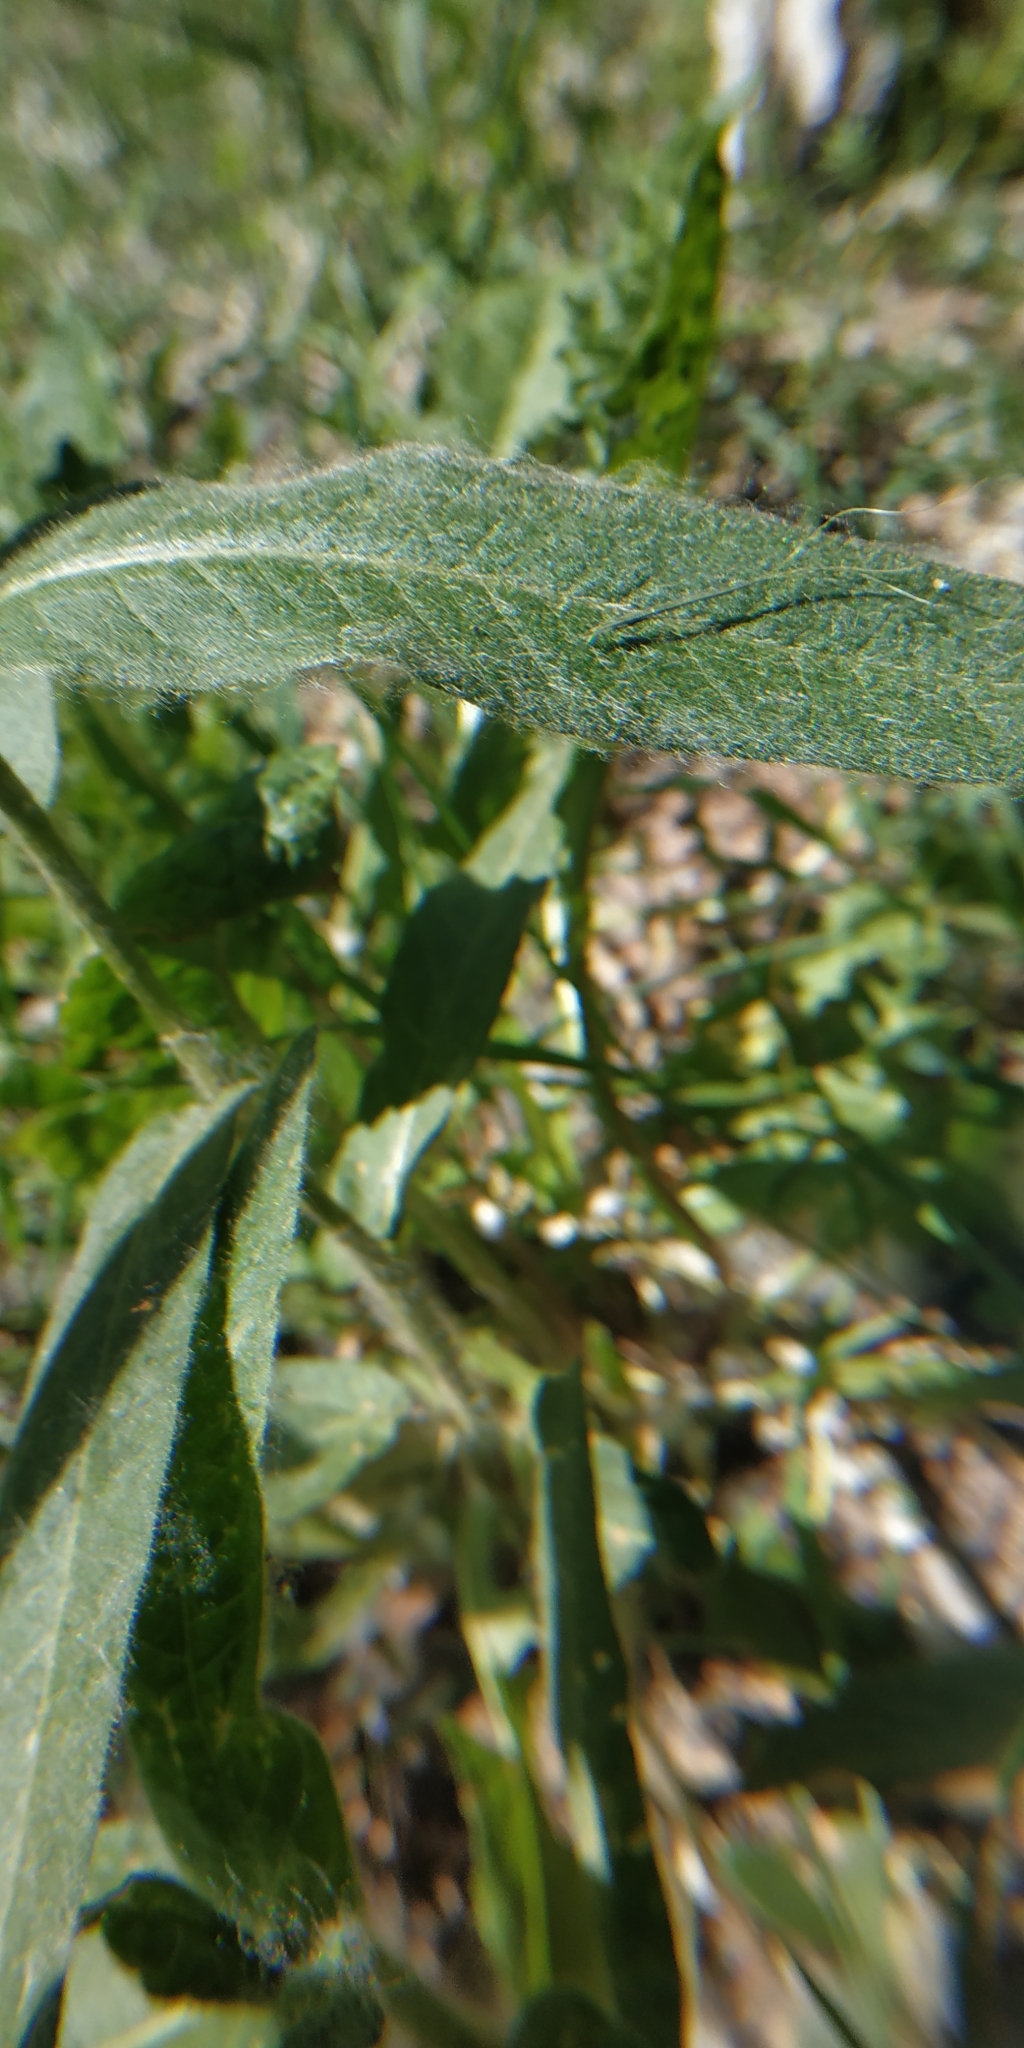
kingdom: Plantae
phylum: Tracheophyta
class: Magnoliopsida
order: Caryophyllales
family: Polygonaceae
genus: Persicaria
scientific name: Persicaria lapathifolia
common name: Curlytop knotweed
